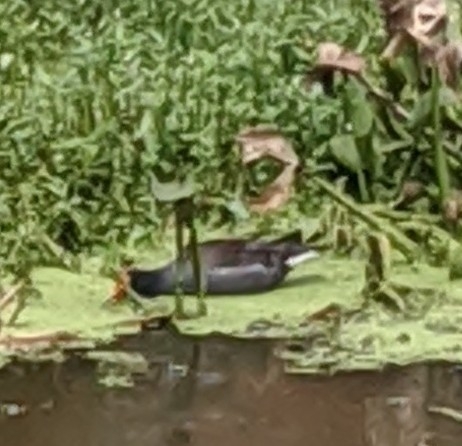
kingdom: Animalia
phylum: Chordata
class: Aves
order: Gruiformes
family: Rallidae
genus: Gallinula
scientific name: Gallinula chloropus
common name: Common moorhen
